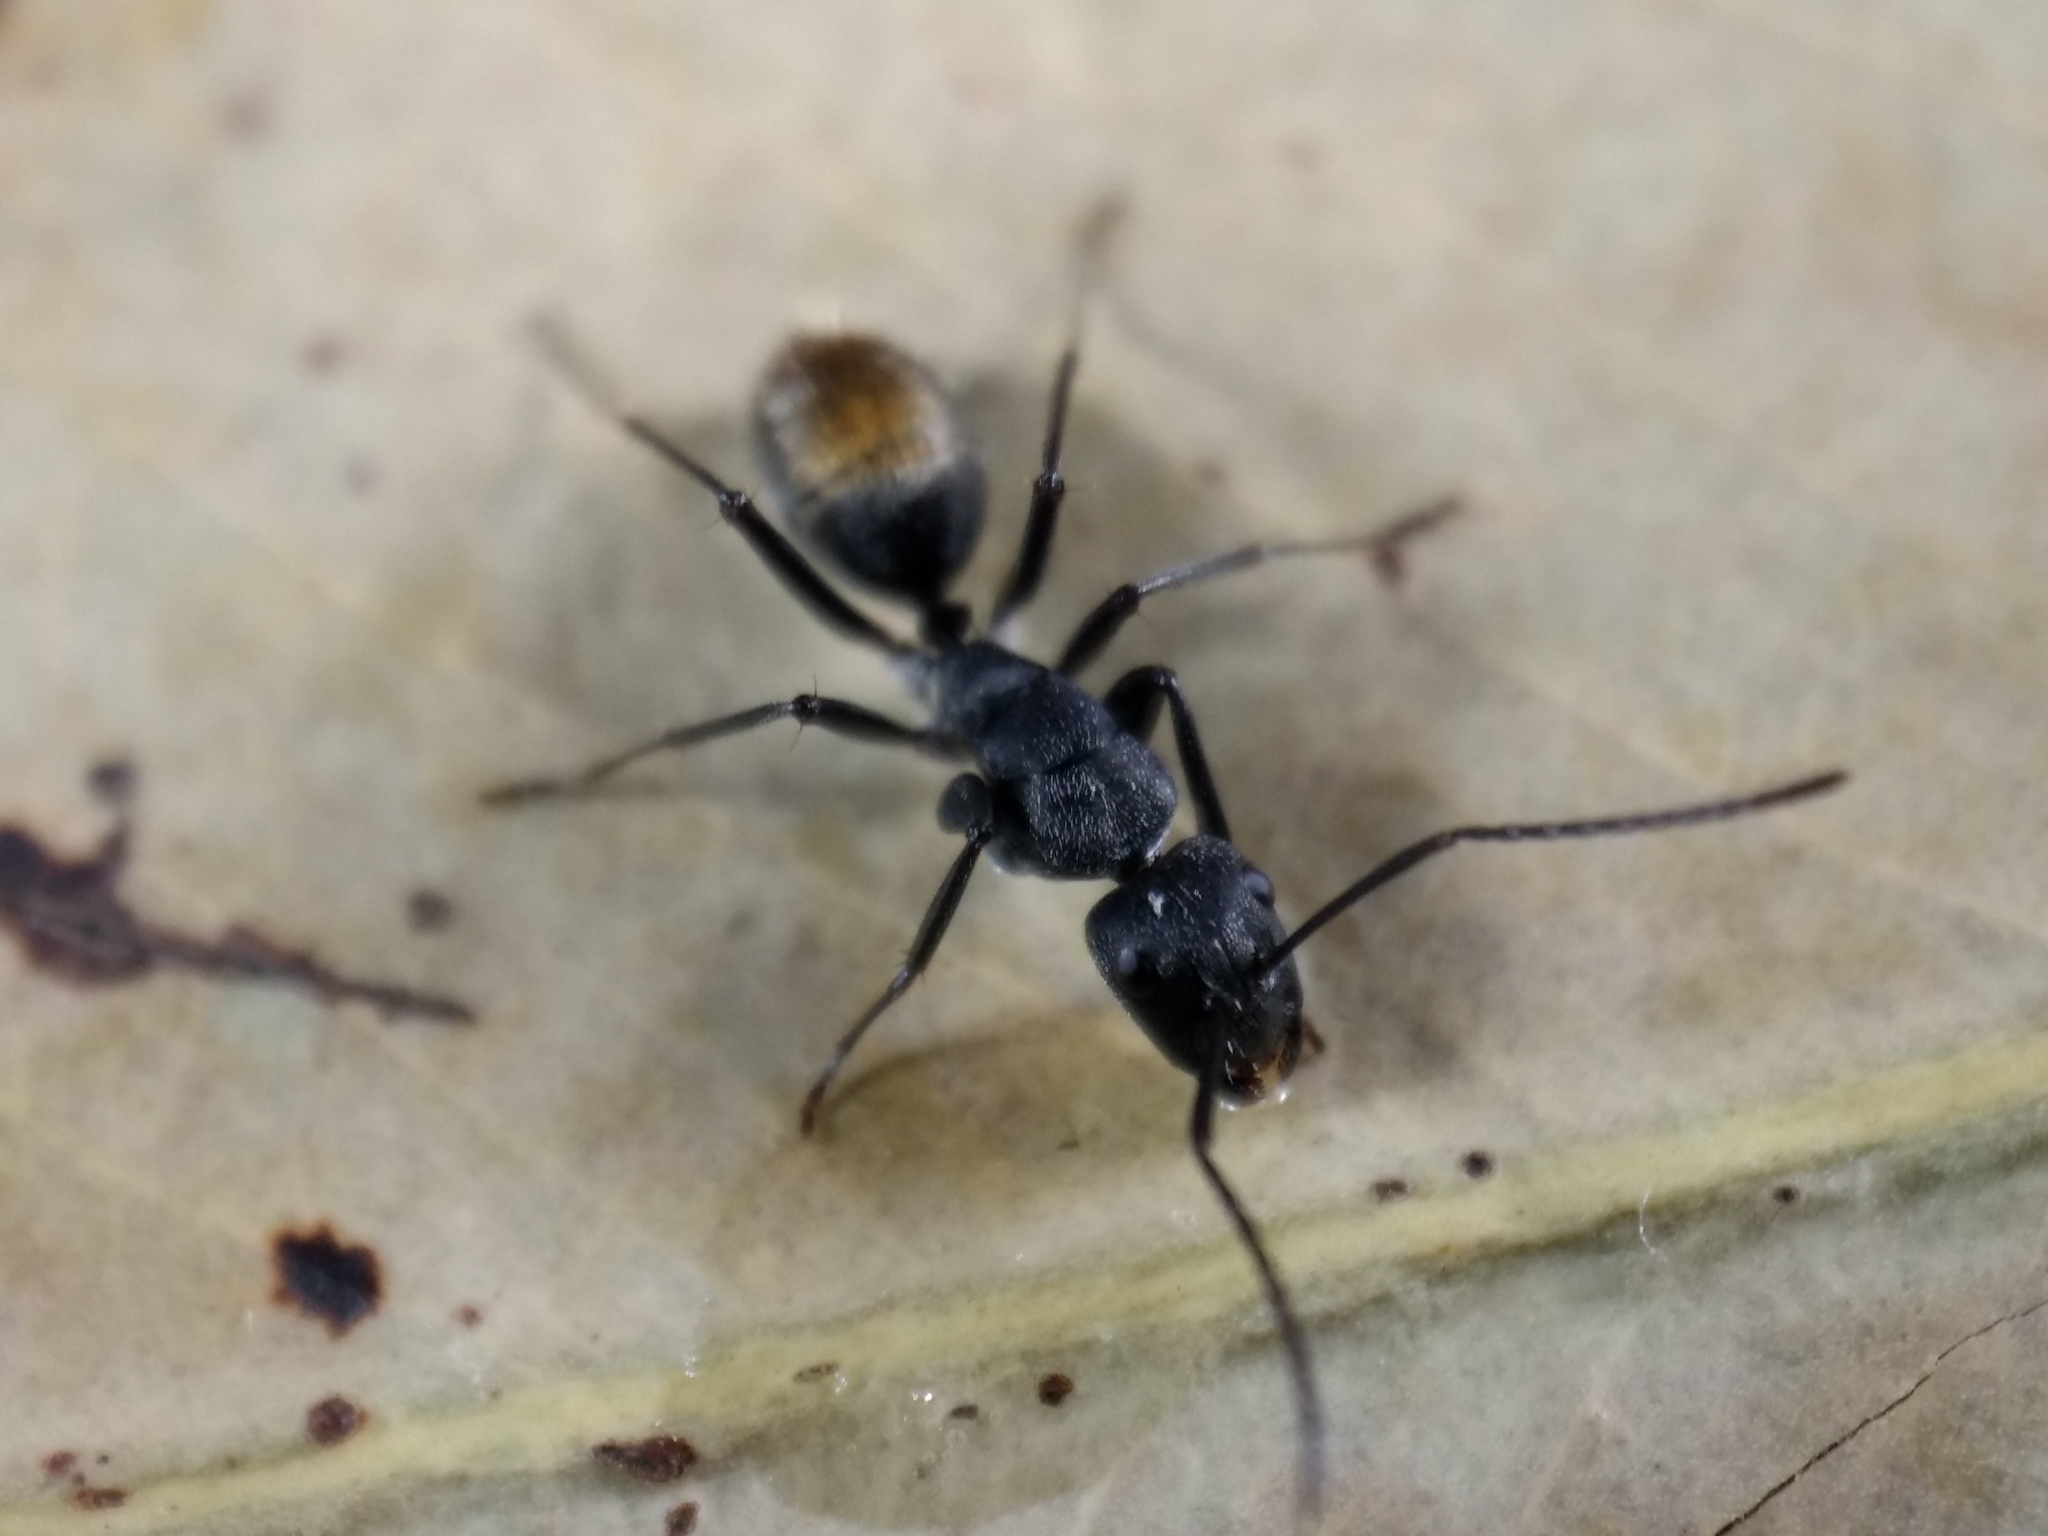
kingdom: Animalia
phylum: Arthropoda
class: Insecta
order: Hymenoptera
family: Formicidae
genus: Camponotus
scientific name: Camponotus aeneopilosus
